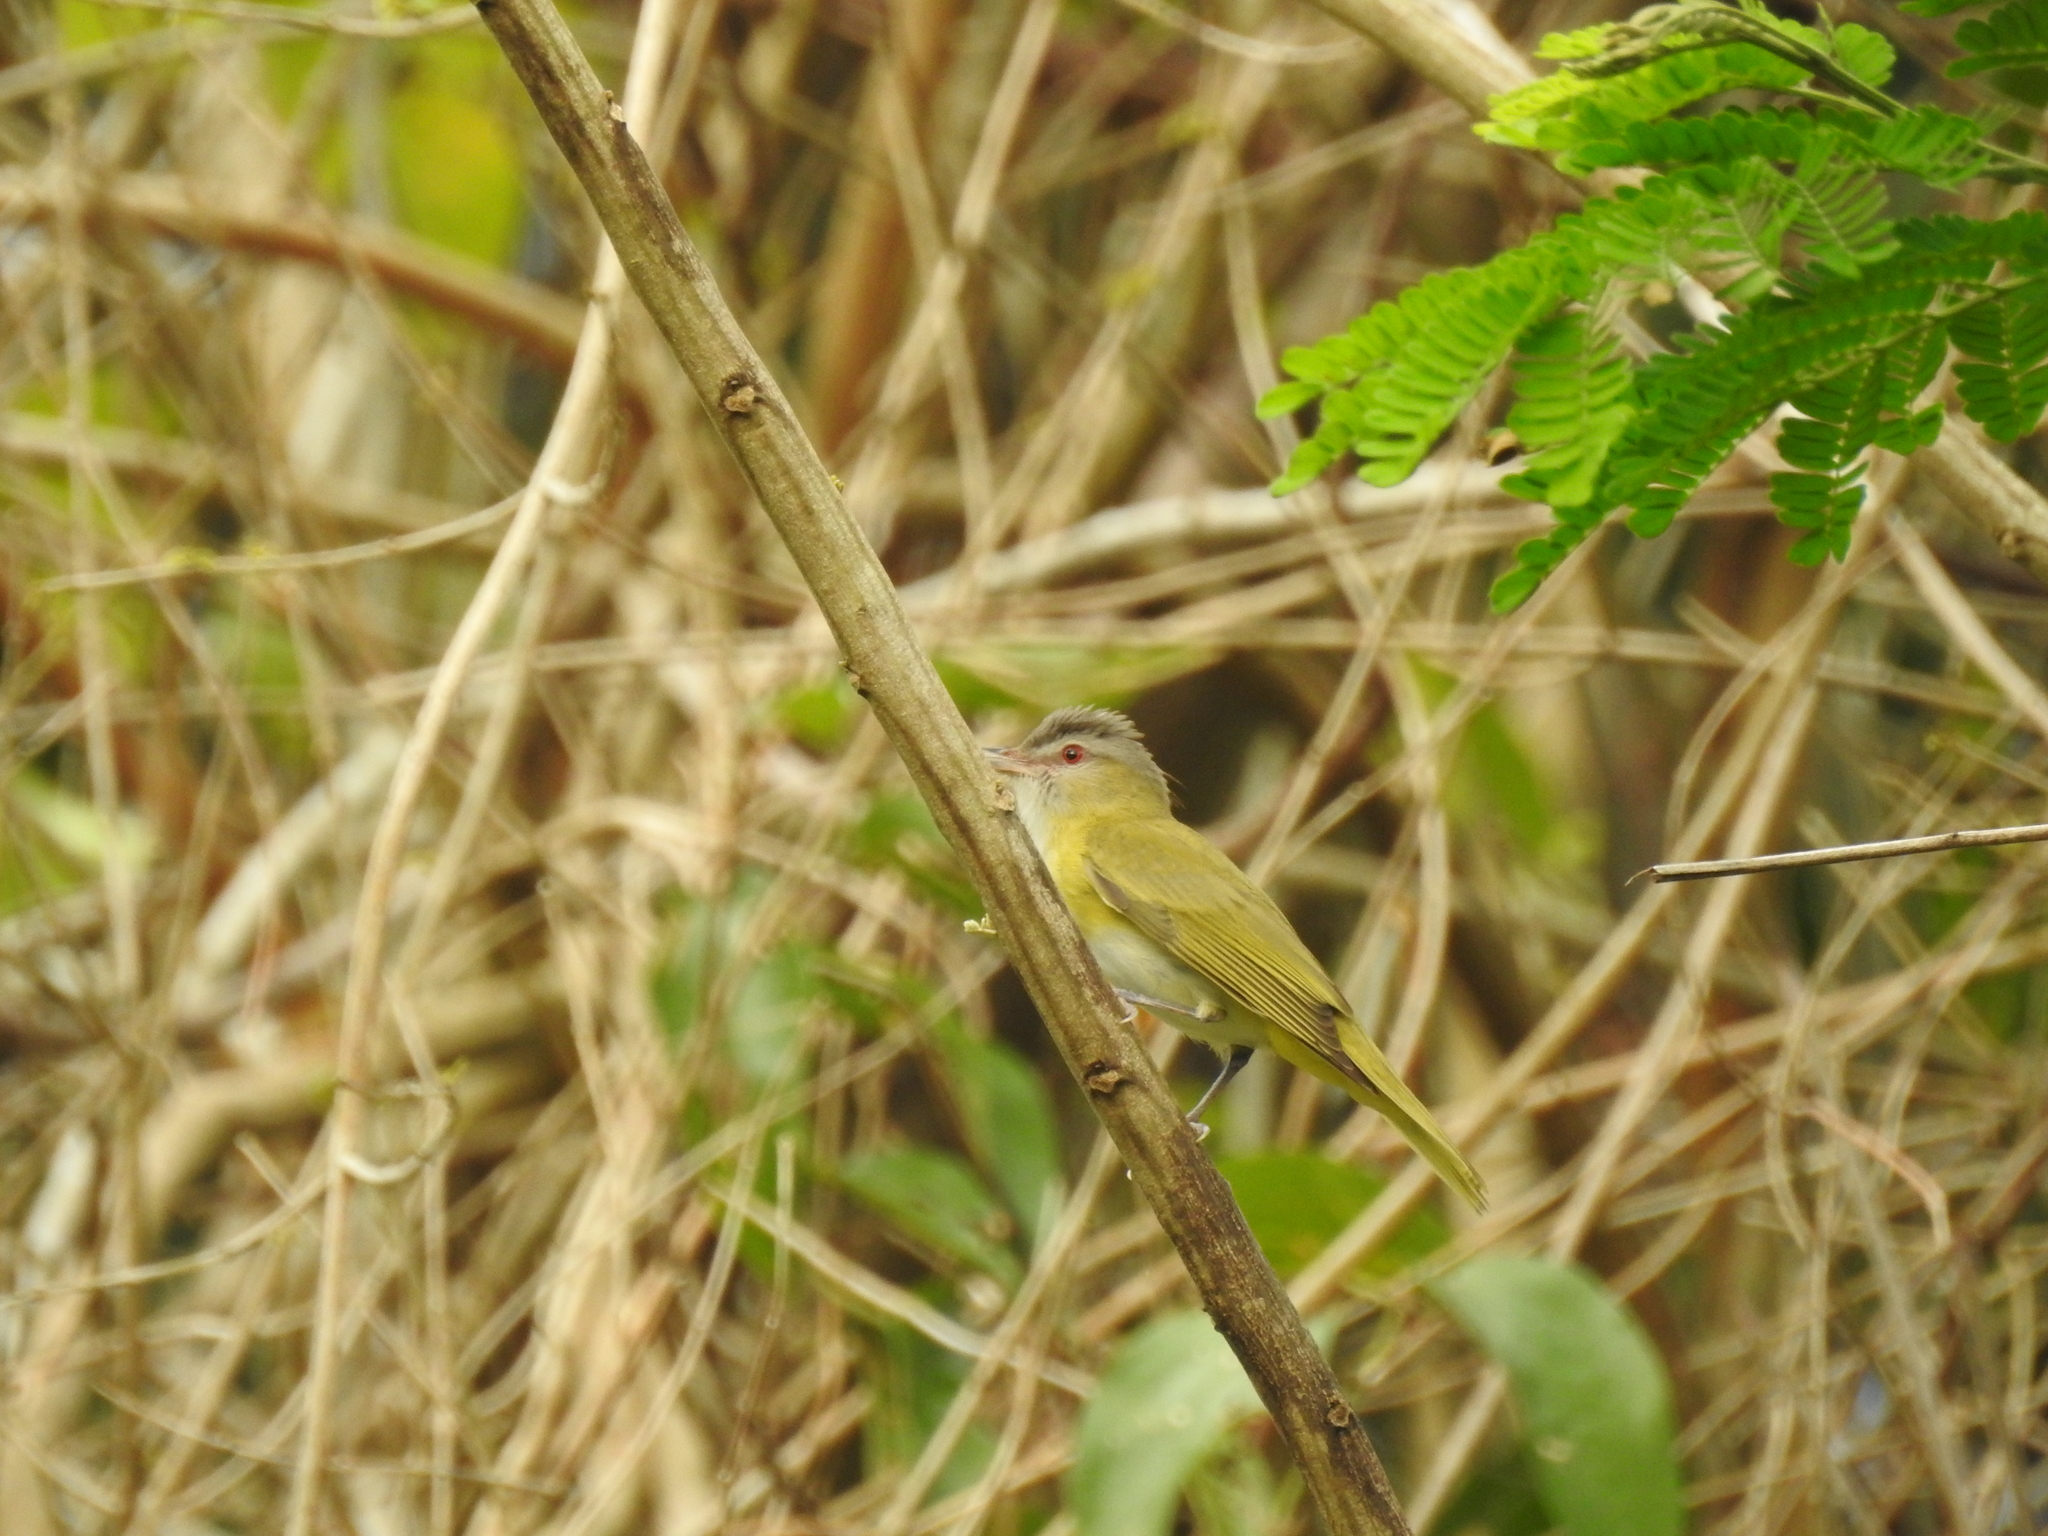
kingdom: Animalia
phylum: Chordata
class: Aves
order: Passeriformes
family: Vireonidae
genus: Vireo
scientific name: Vireo flavoviridis
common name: Yellow-green vireo
